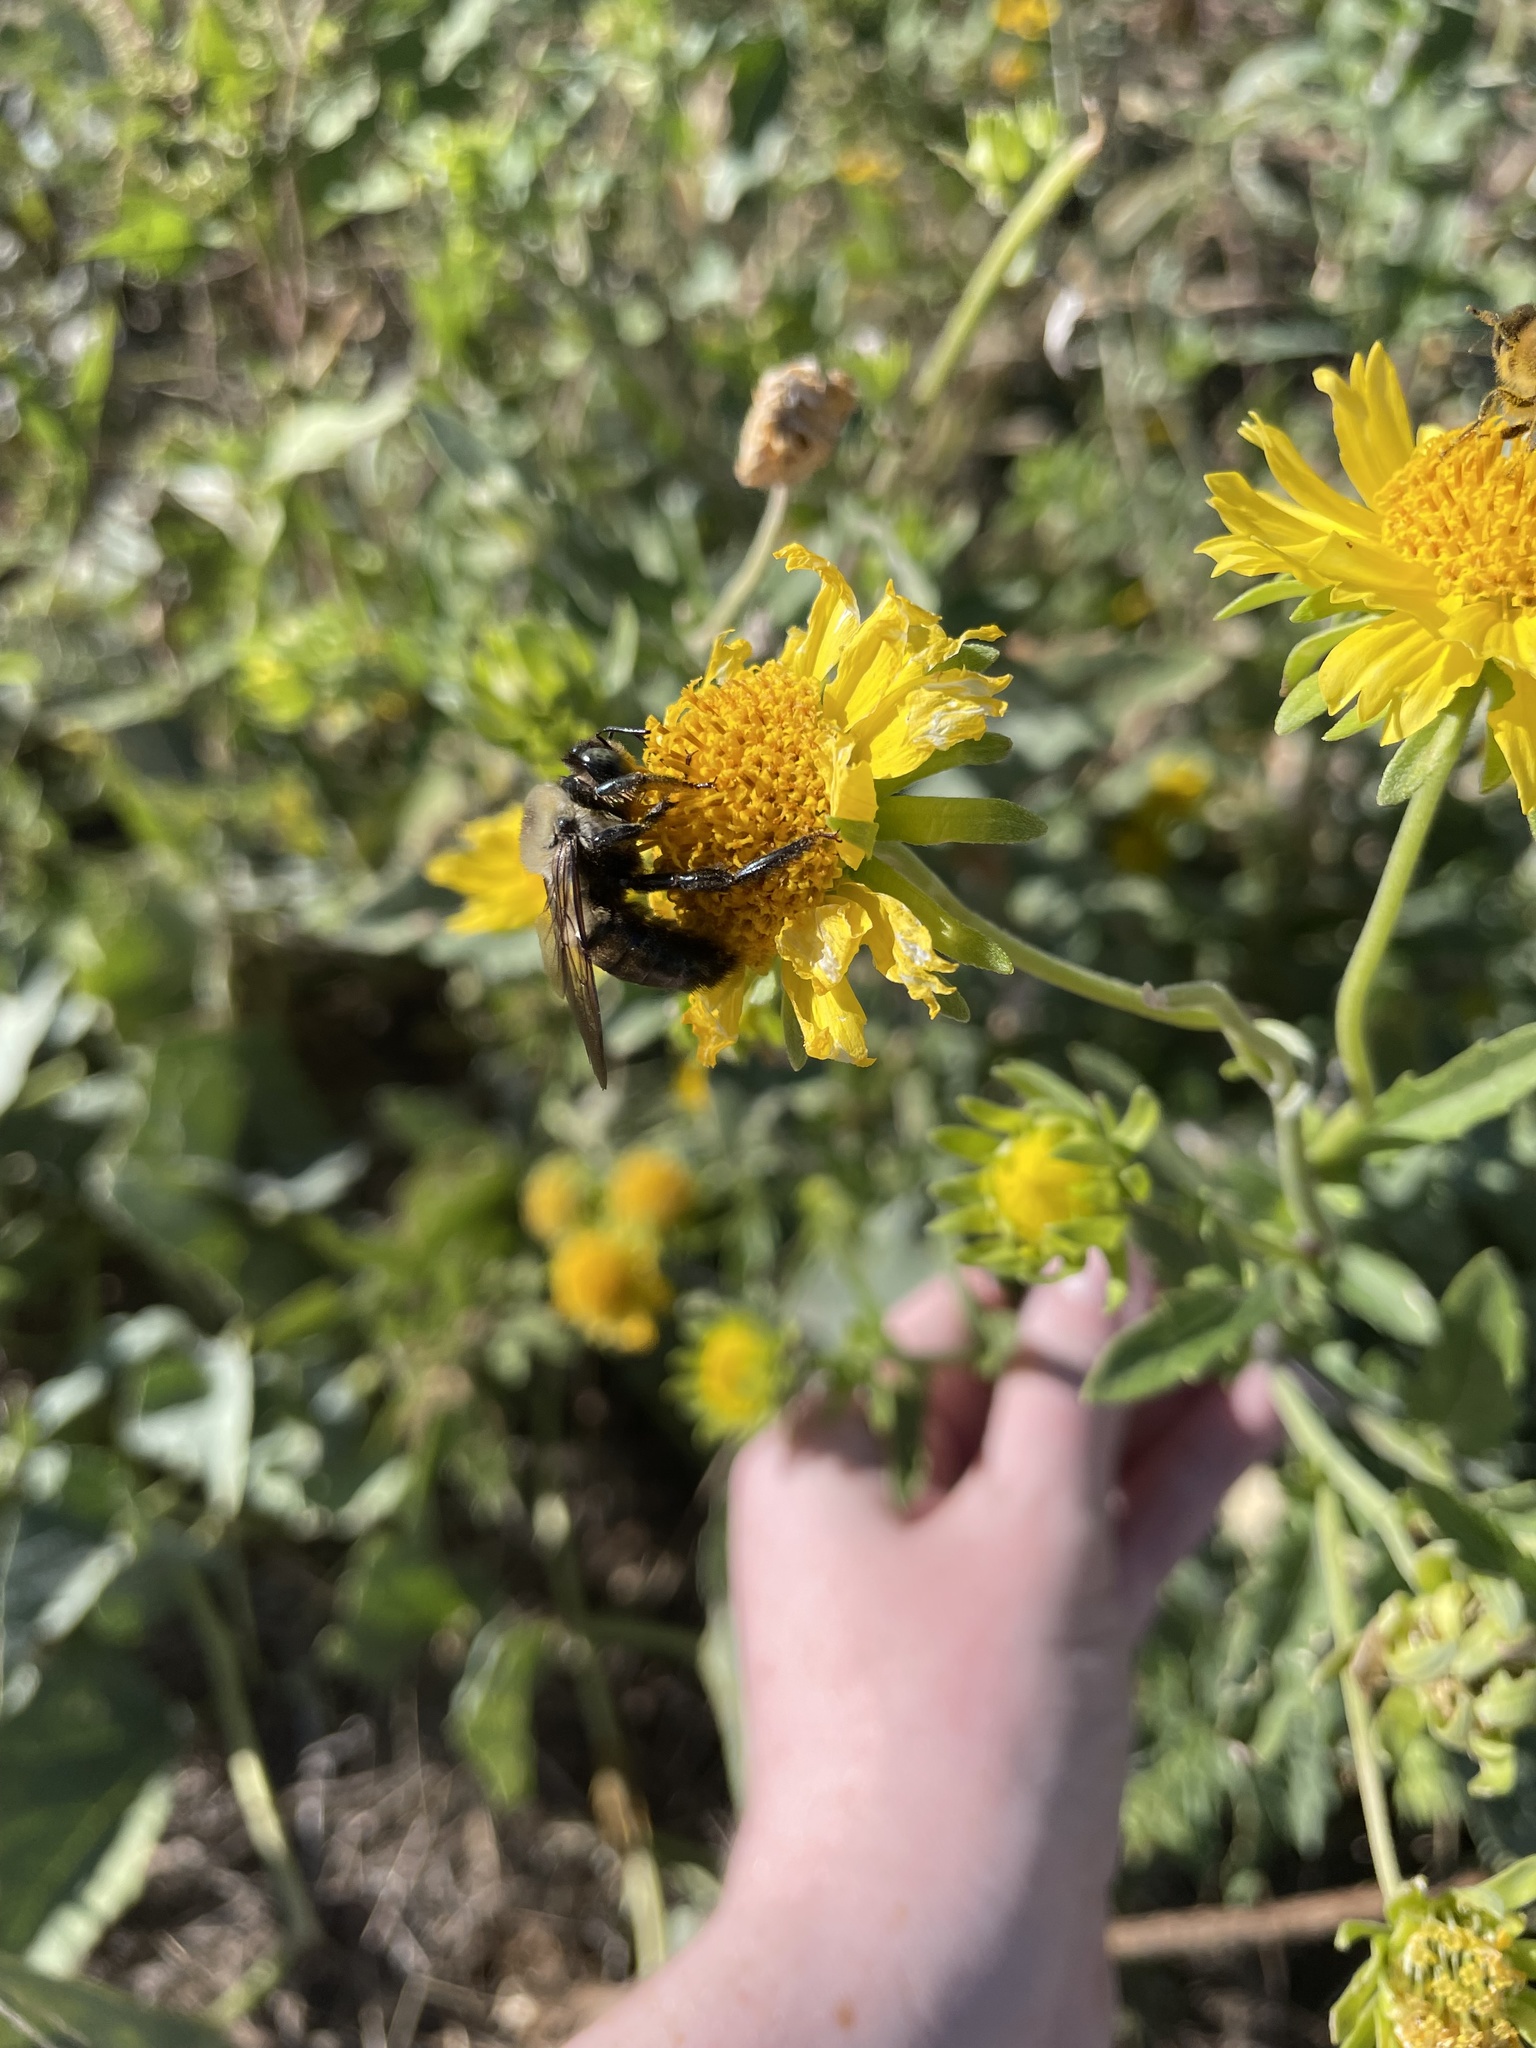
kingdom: Animalia
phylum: Arthropoda
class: Insecta
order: Hymenoptera
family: Apidae
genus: Xylocopa
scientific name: Xylocopa virginica
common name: Carpenter bee
